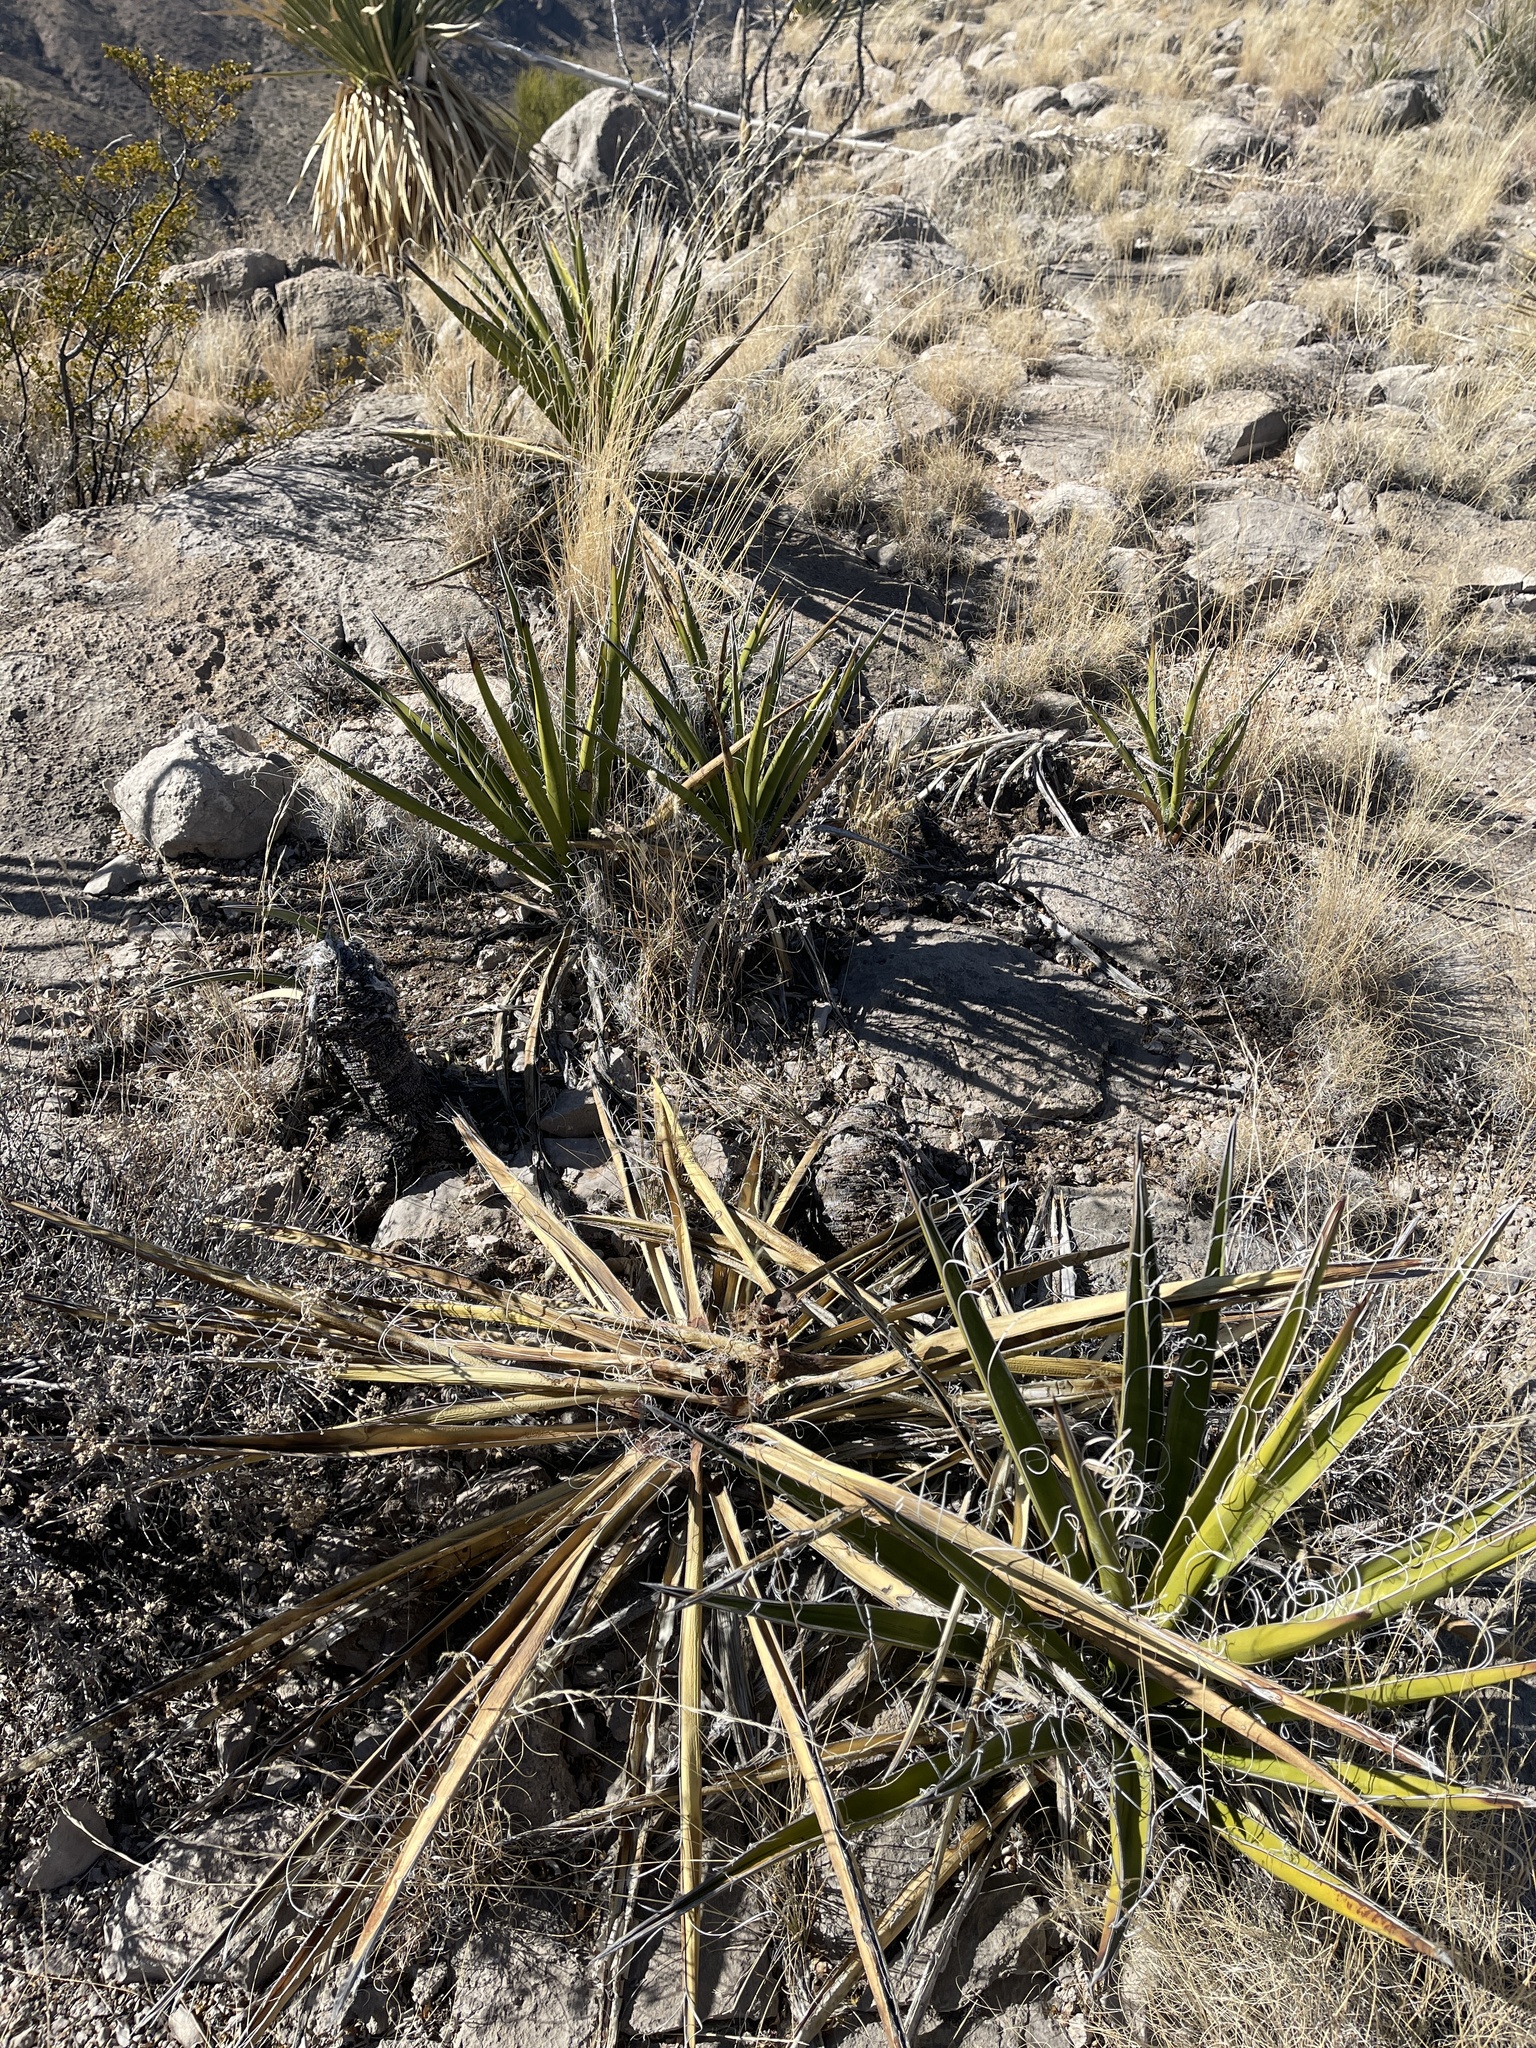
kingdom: Plantae
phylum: Tracheophyta
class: Liliopsida
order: Asparagales
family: Asparagaceae
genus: Yucca
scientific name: Yucca baccata
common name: Banana yucca
